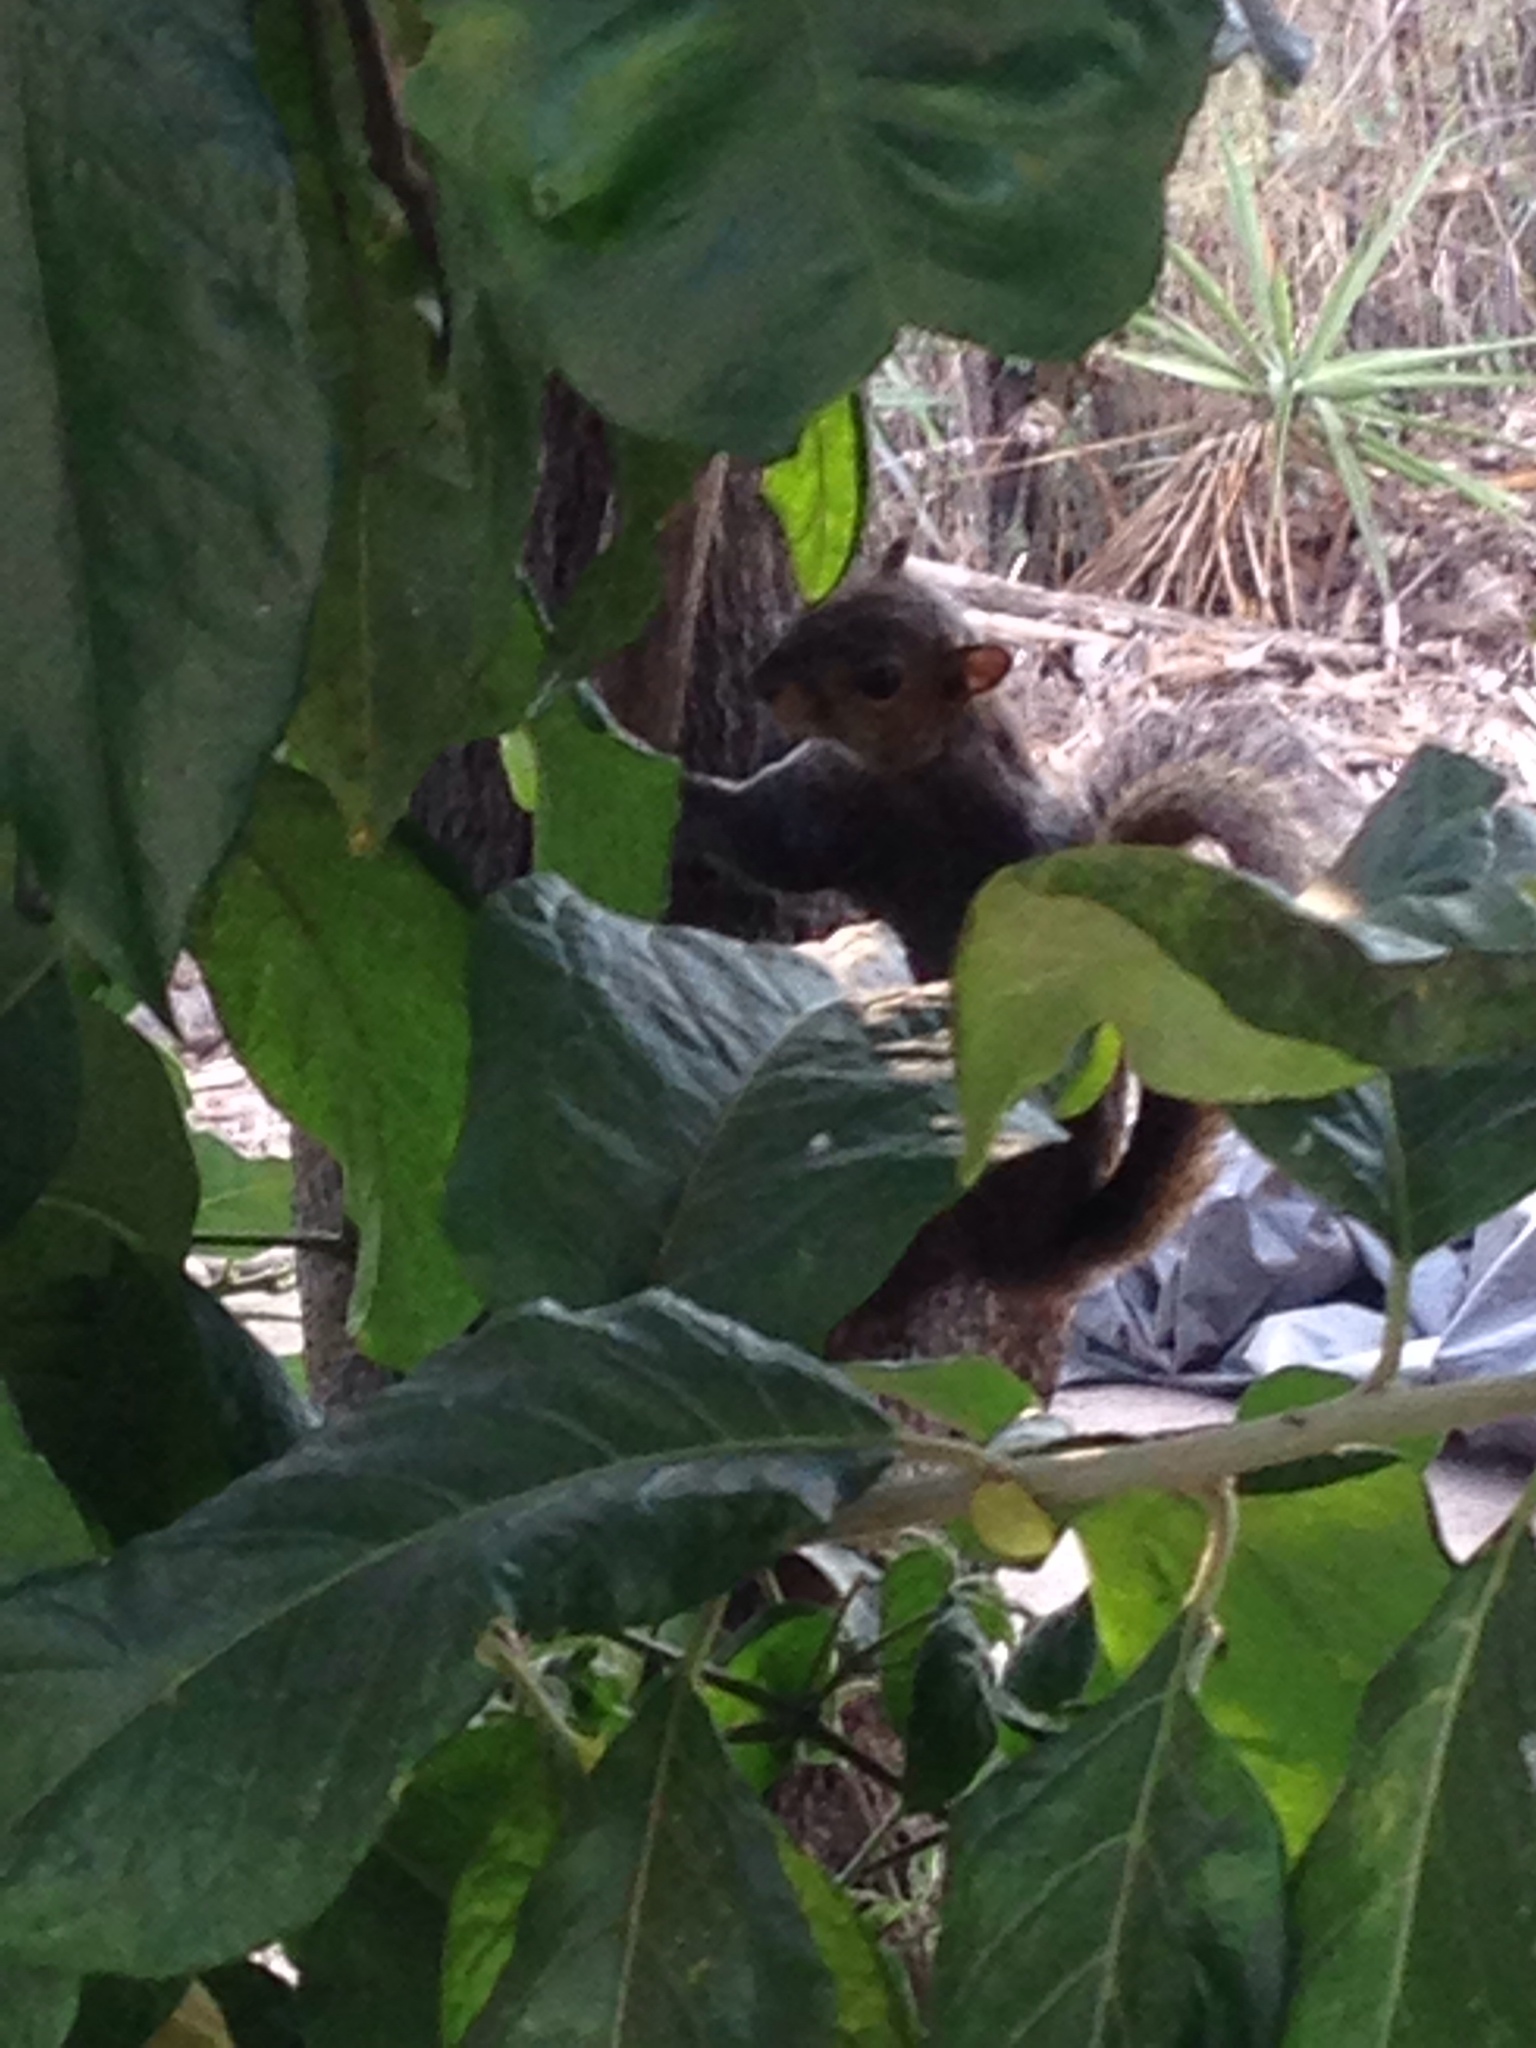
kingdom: Animalia
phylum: Chordata
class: Mammalia
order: Rodentia
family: Sciuridae
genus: Sciurus
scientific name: Sciurus deppei
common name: Deppe's squirrel
